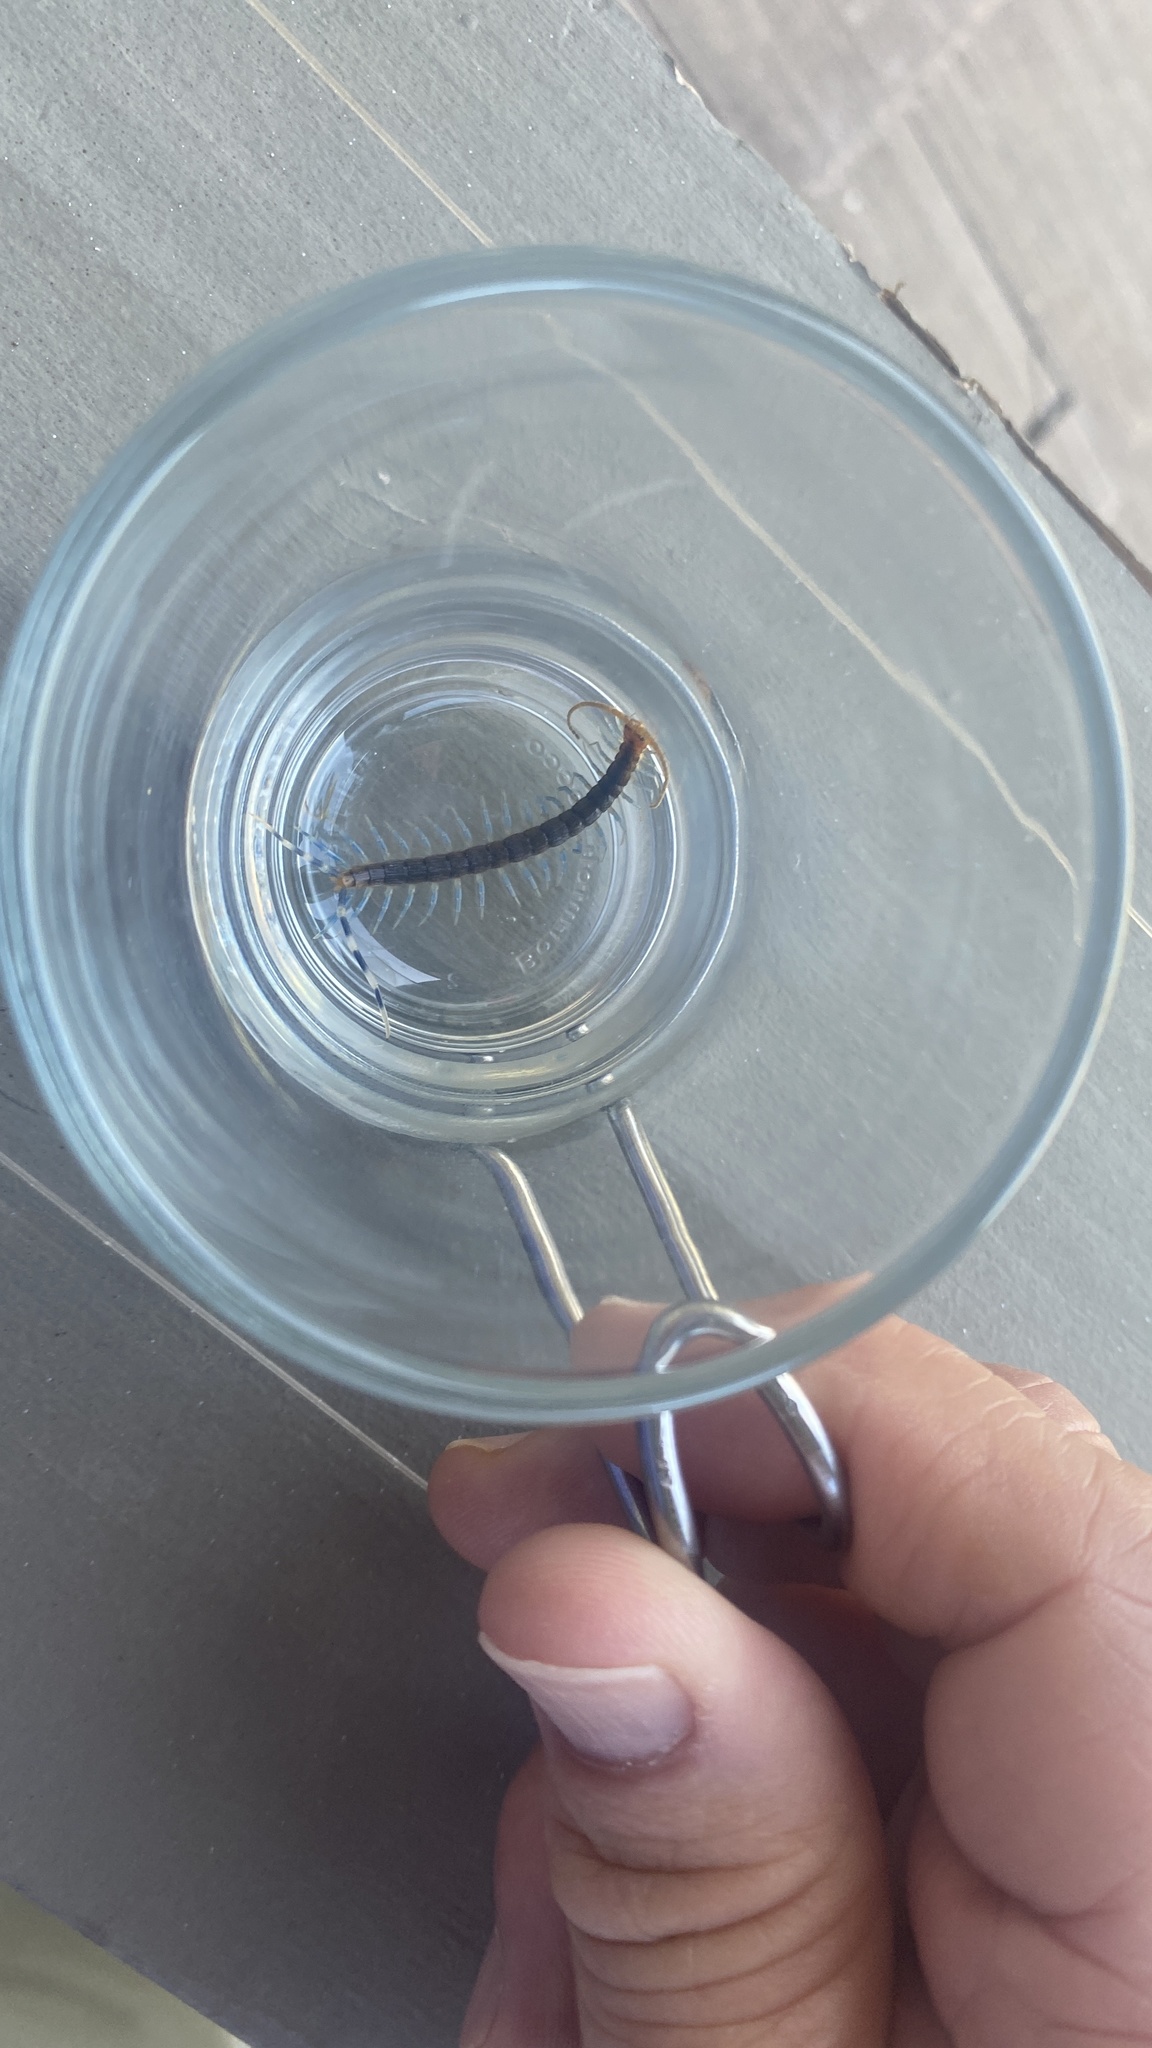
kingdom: Animalia
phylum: Arthropoda
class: Chilopoda
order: Scolopendromorpha
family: Scolopendridae
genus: Otostigmus
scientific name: Otostigmus scaber
